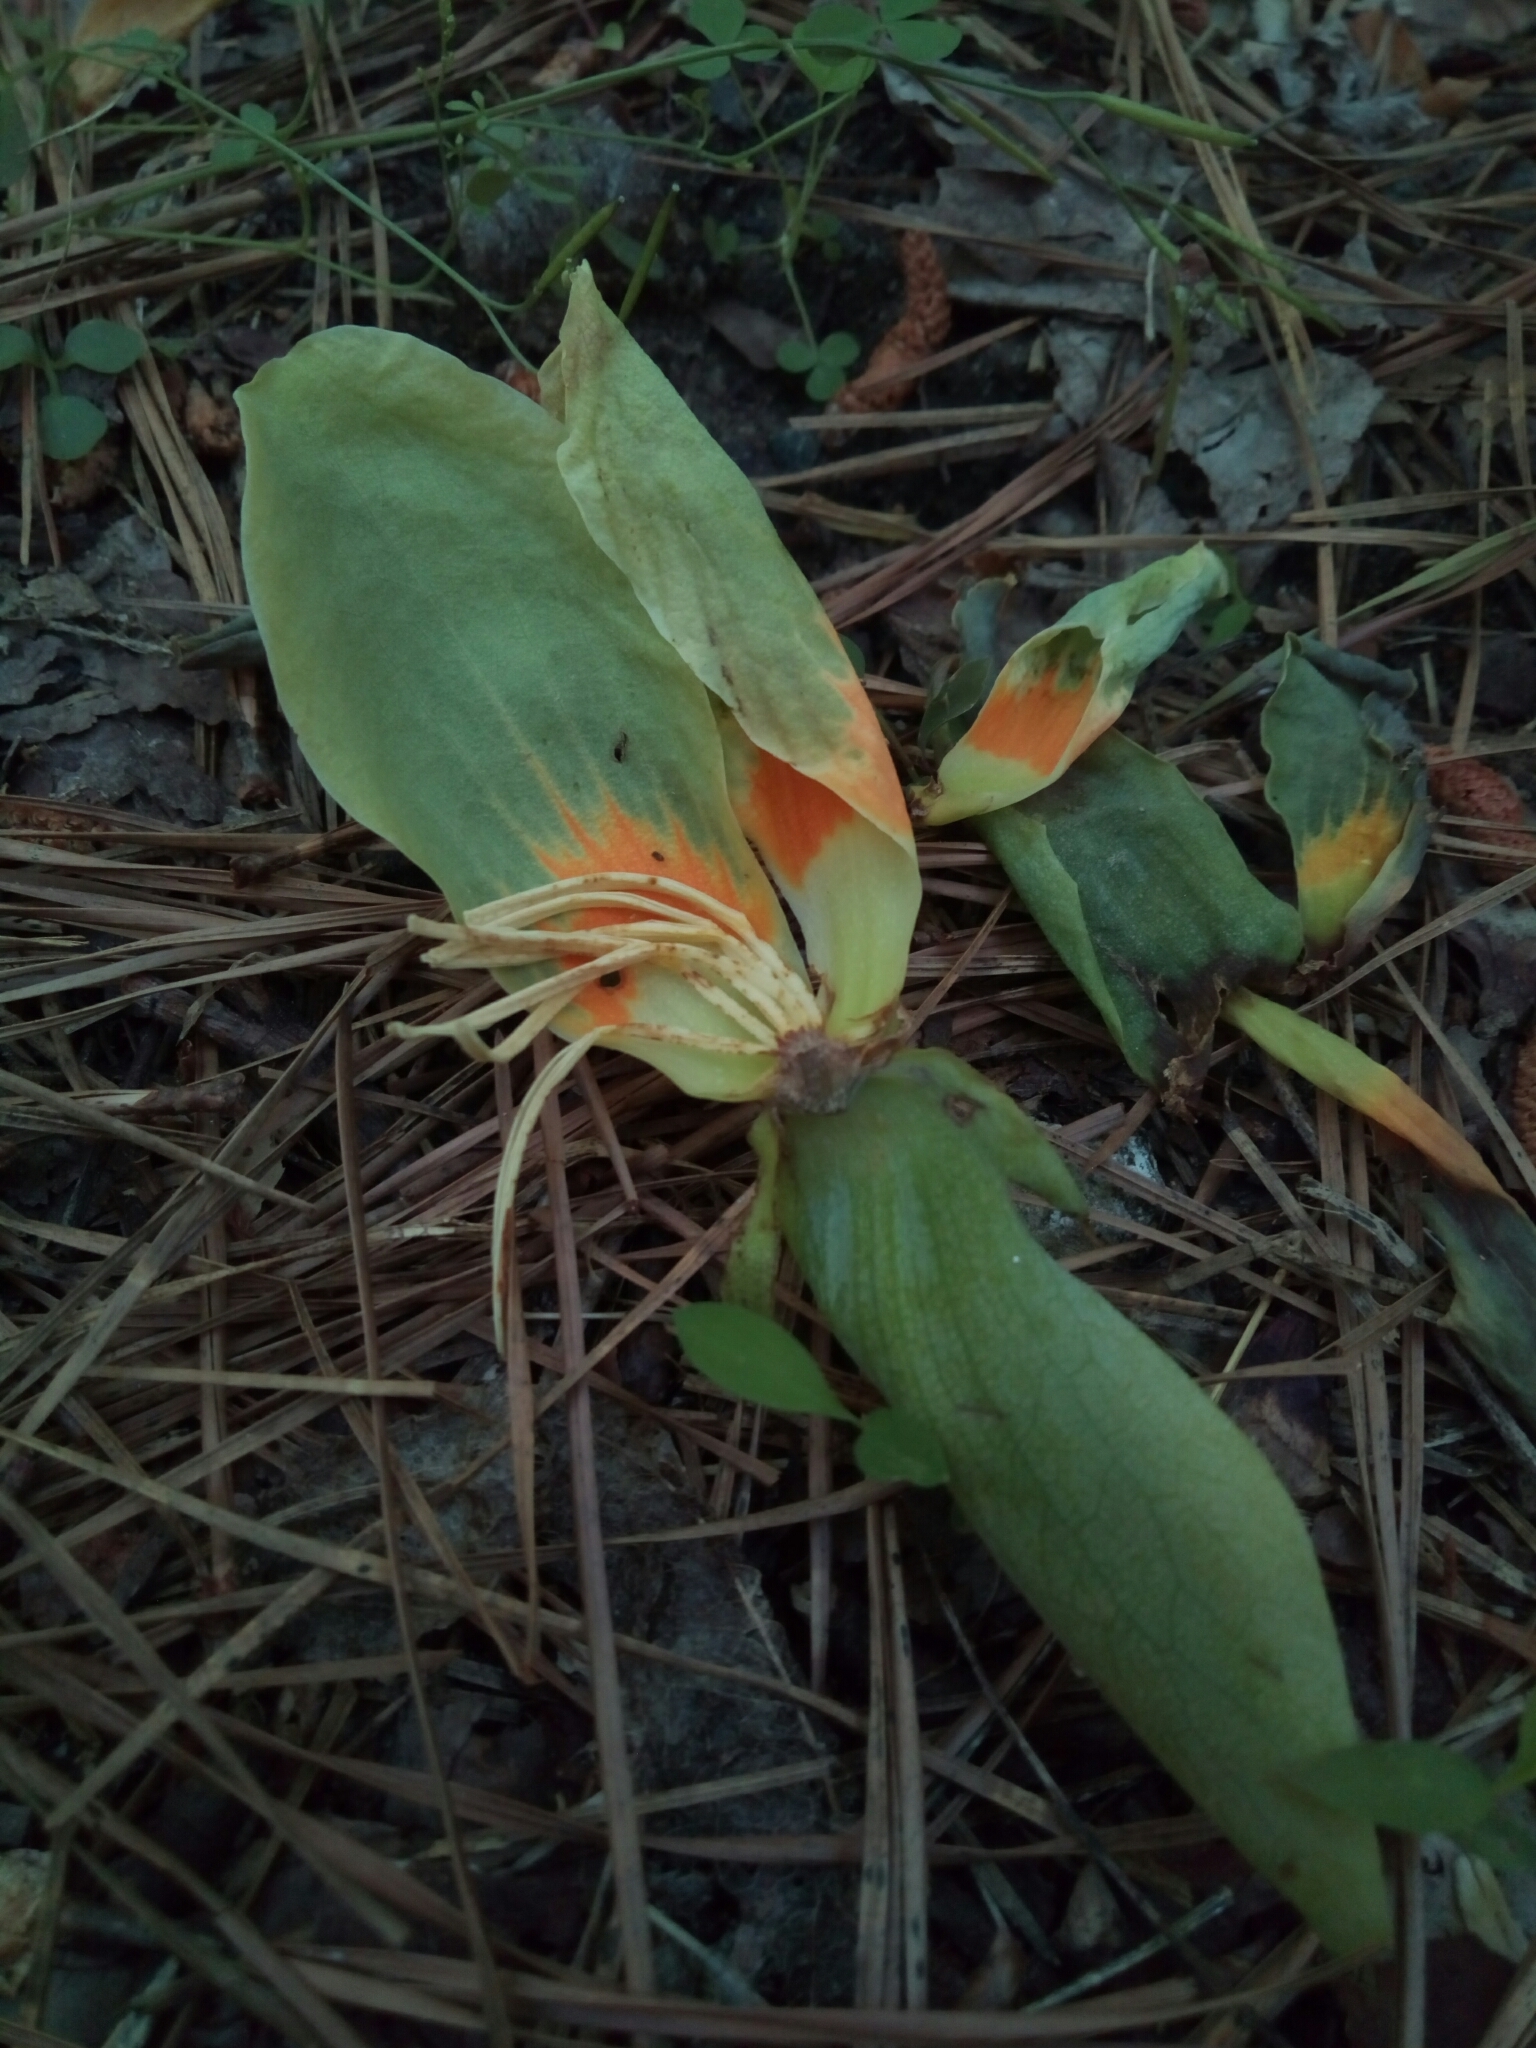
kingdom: Plantae
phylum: Tracheophyta
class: Magnoliopsida
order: Magnoliales
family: Magnoliaceae
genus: Liriodendron
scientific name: Liriodendron tulipifera
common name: Tulip tree
